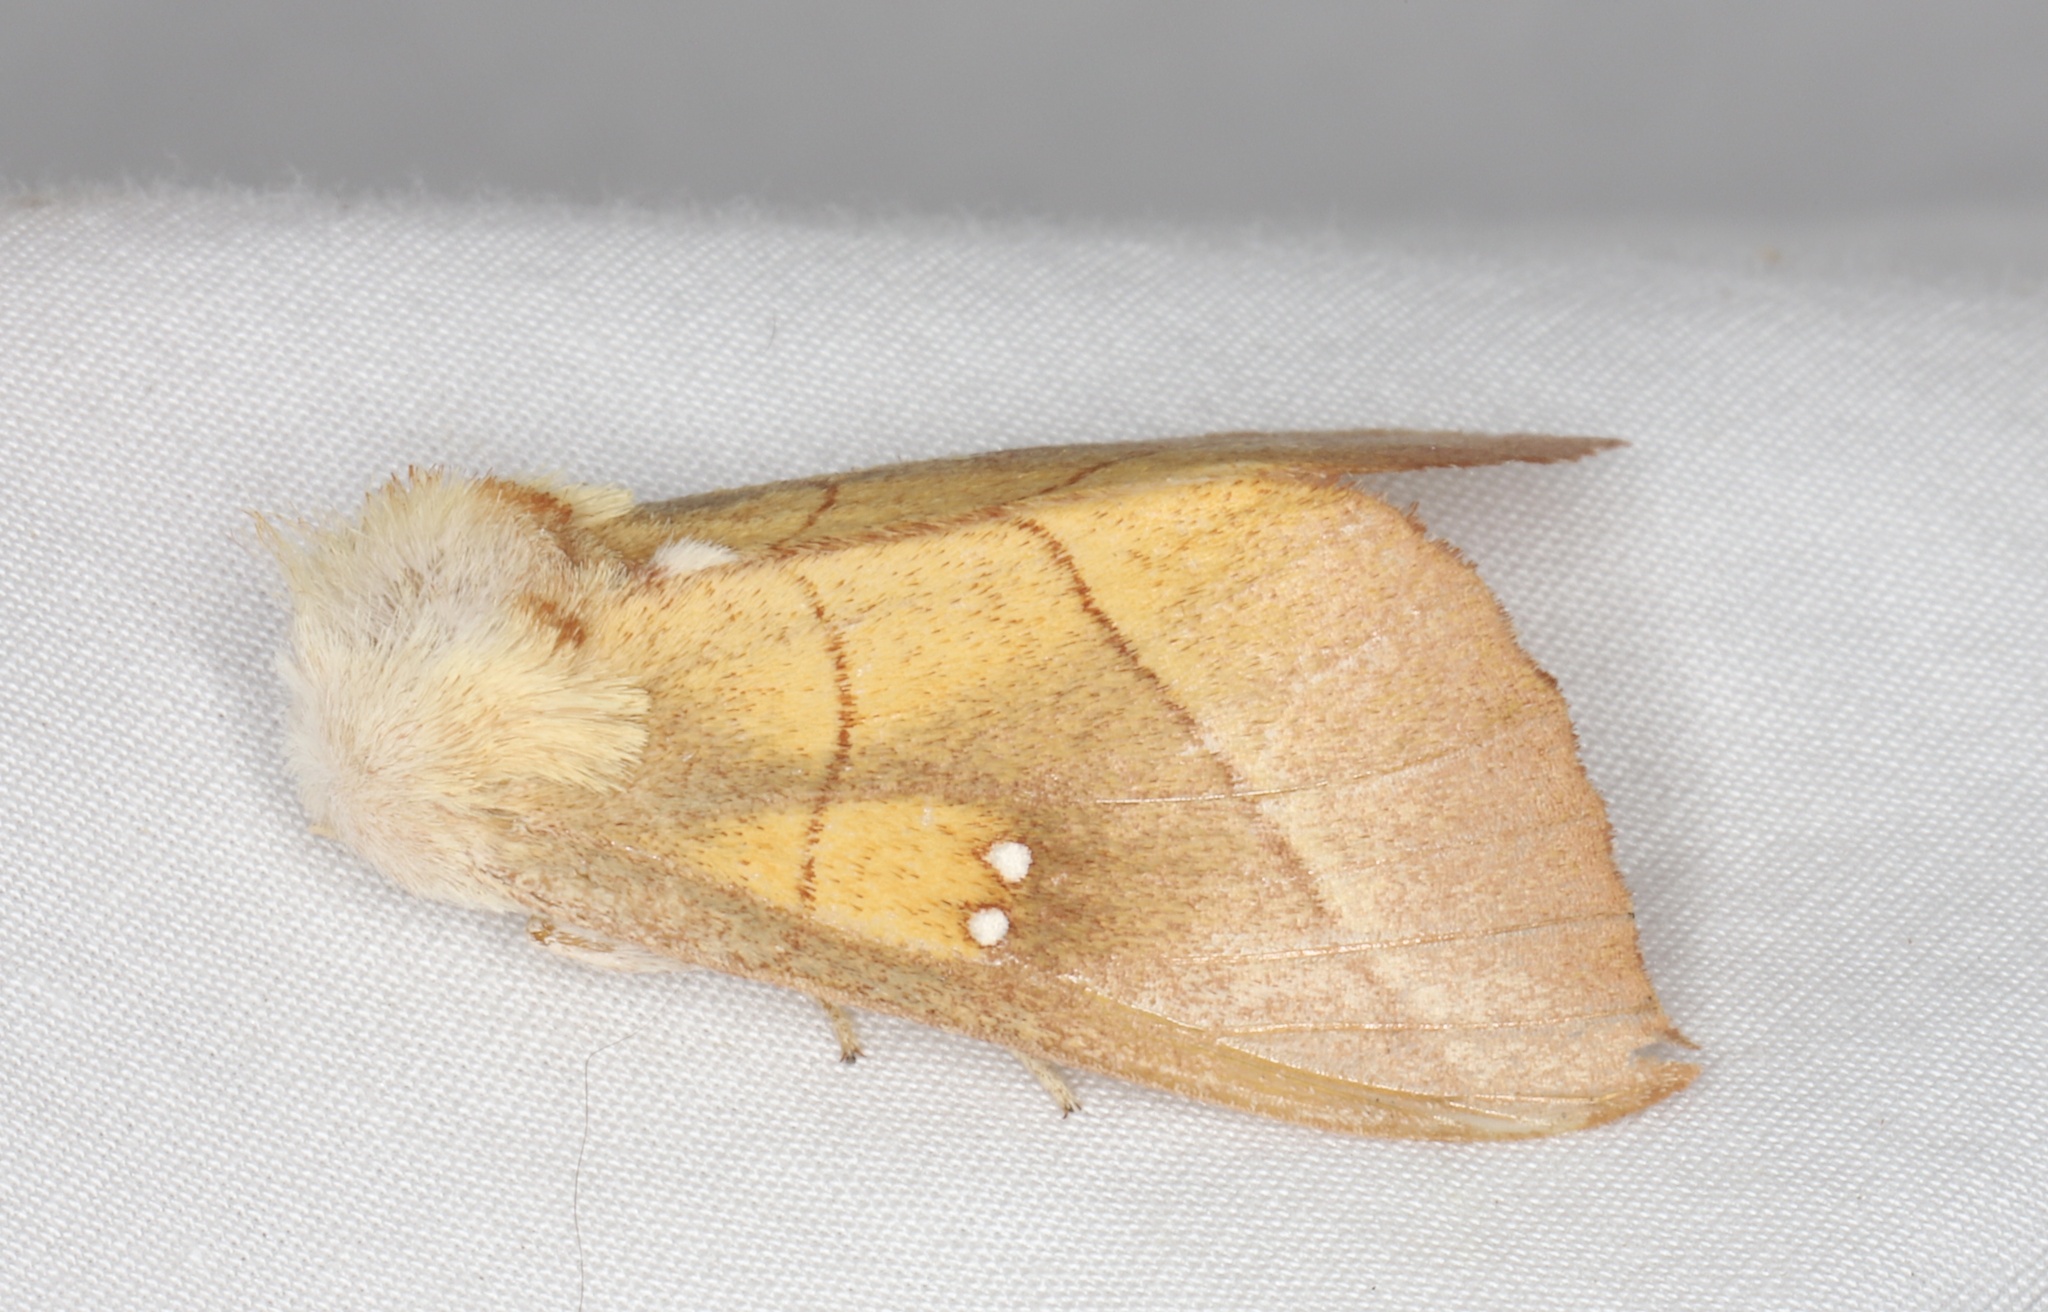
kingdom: Animalia
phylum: Arthropoda
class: Insecta
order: Lepidoptera
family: Notodontidae
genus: Nadata
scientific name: Nadata gibbosa
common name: White-dotted prominent
